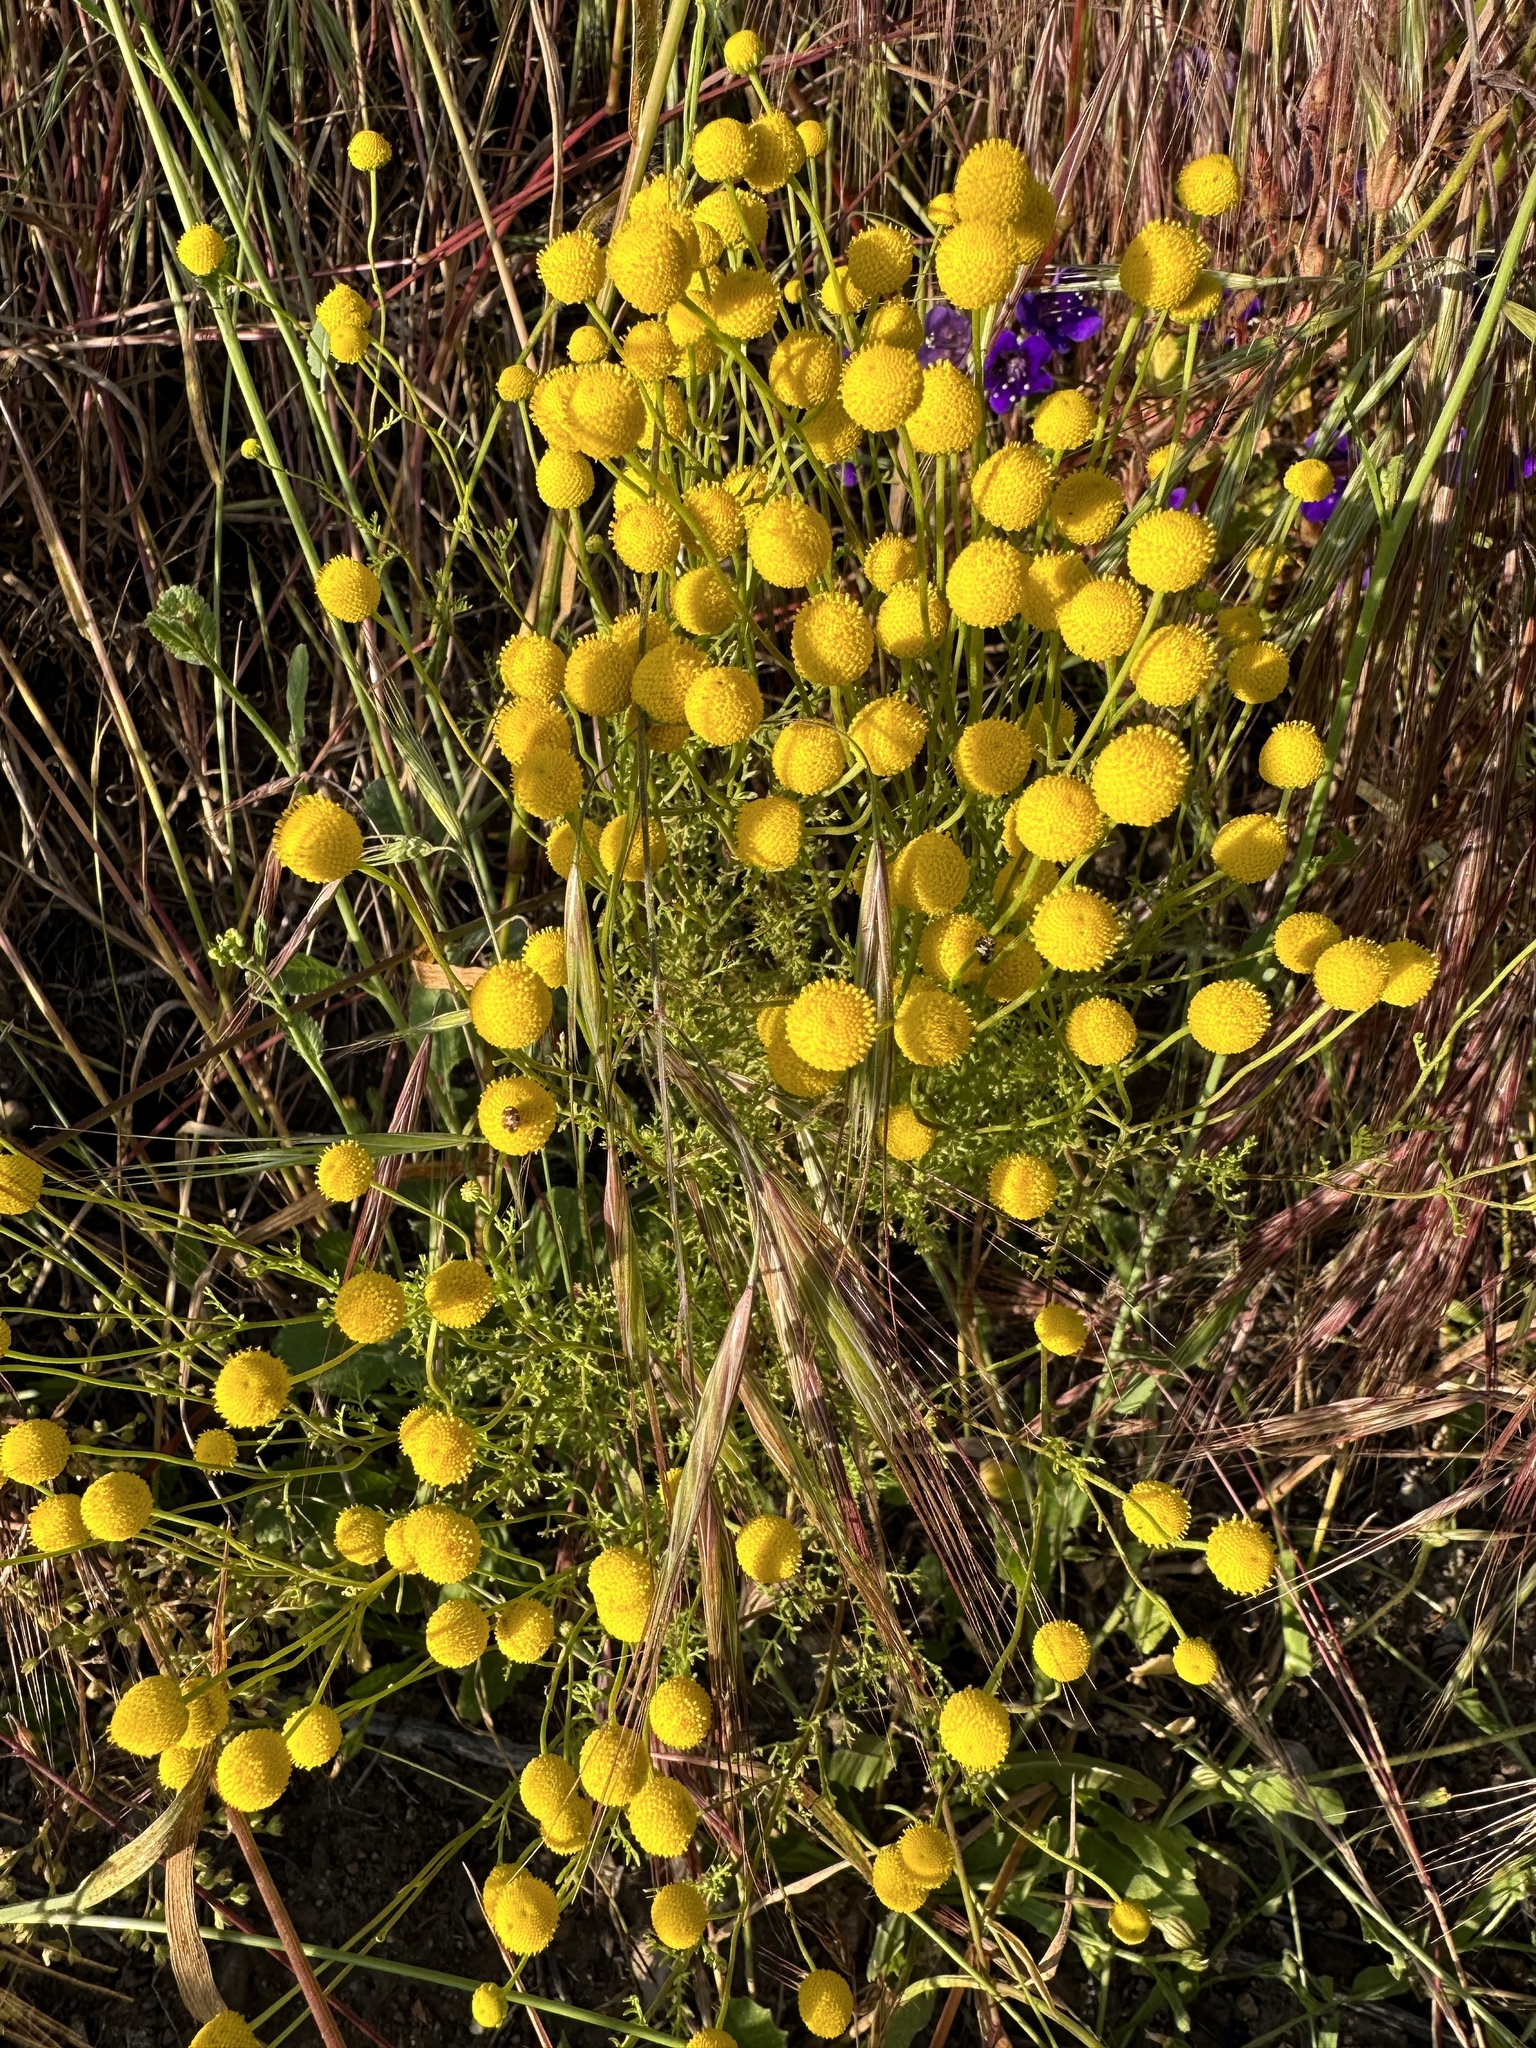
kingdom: Plantae
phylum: Tracheophyta
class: Magnoliopsida
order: Asterales
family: Asteraceae
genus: Oncosiphon
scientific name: Oncosiphon pilulifer
